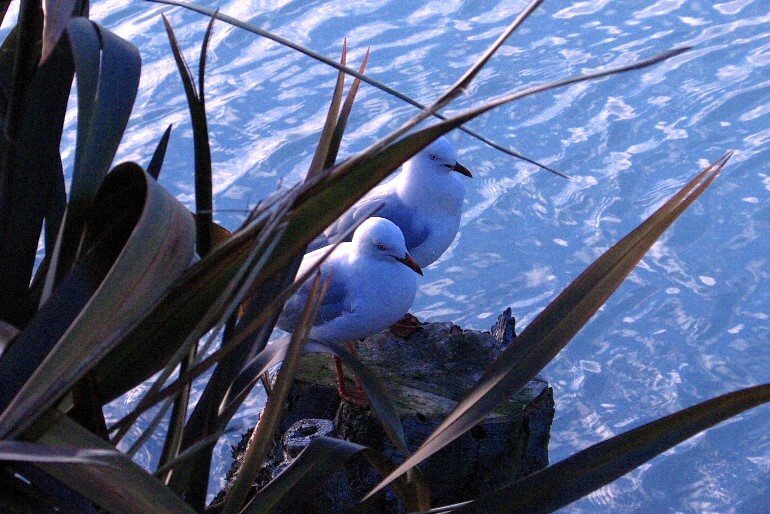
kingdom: Animalia
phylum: Chordata
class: Aves
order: Charadriiformes
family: Laridae
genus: Chroicocephalus
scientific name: Chroicocephalus novaehollandiae
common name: Silver gull
